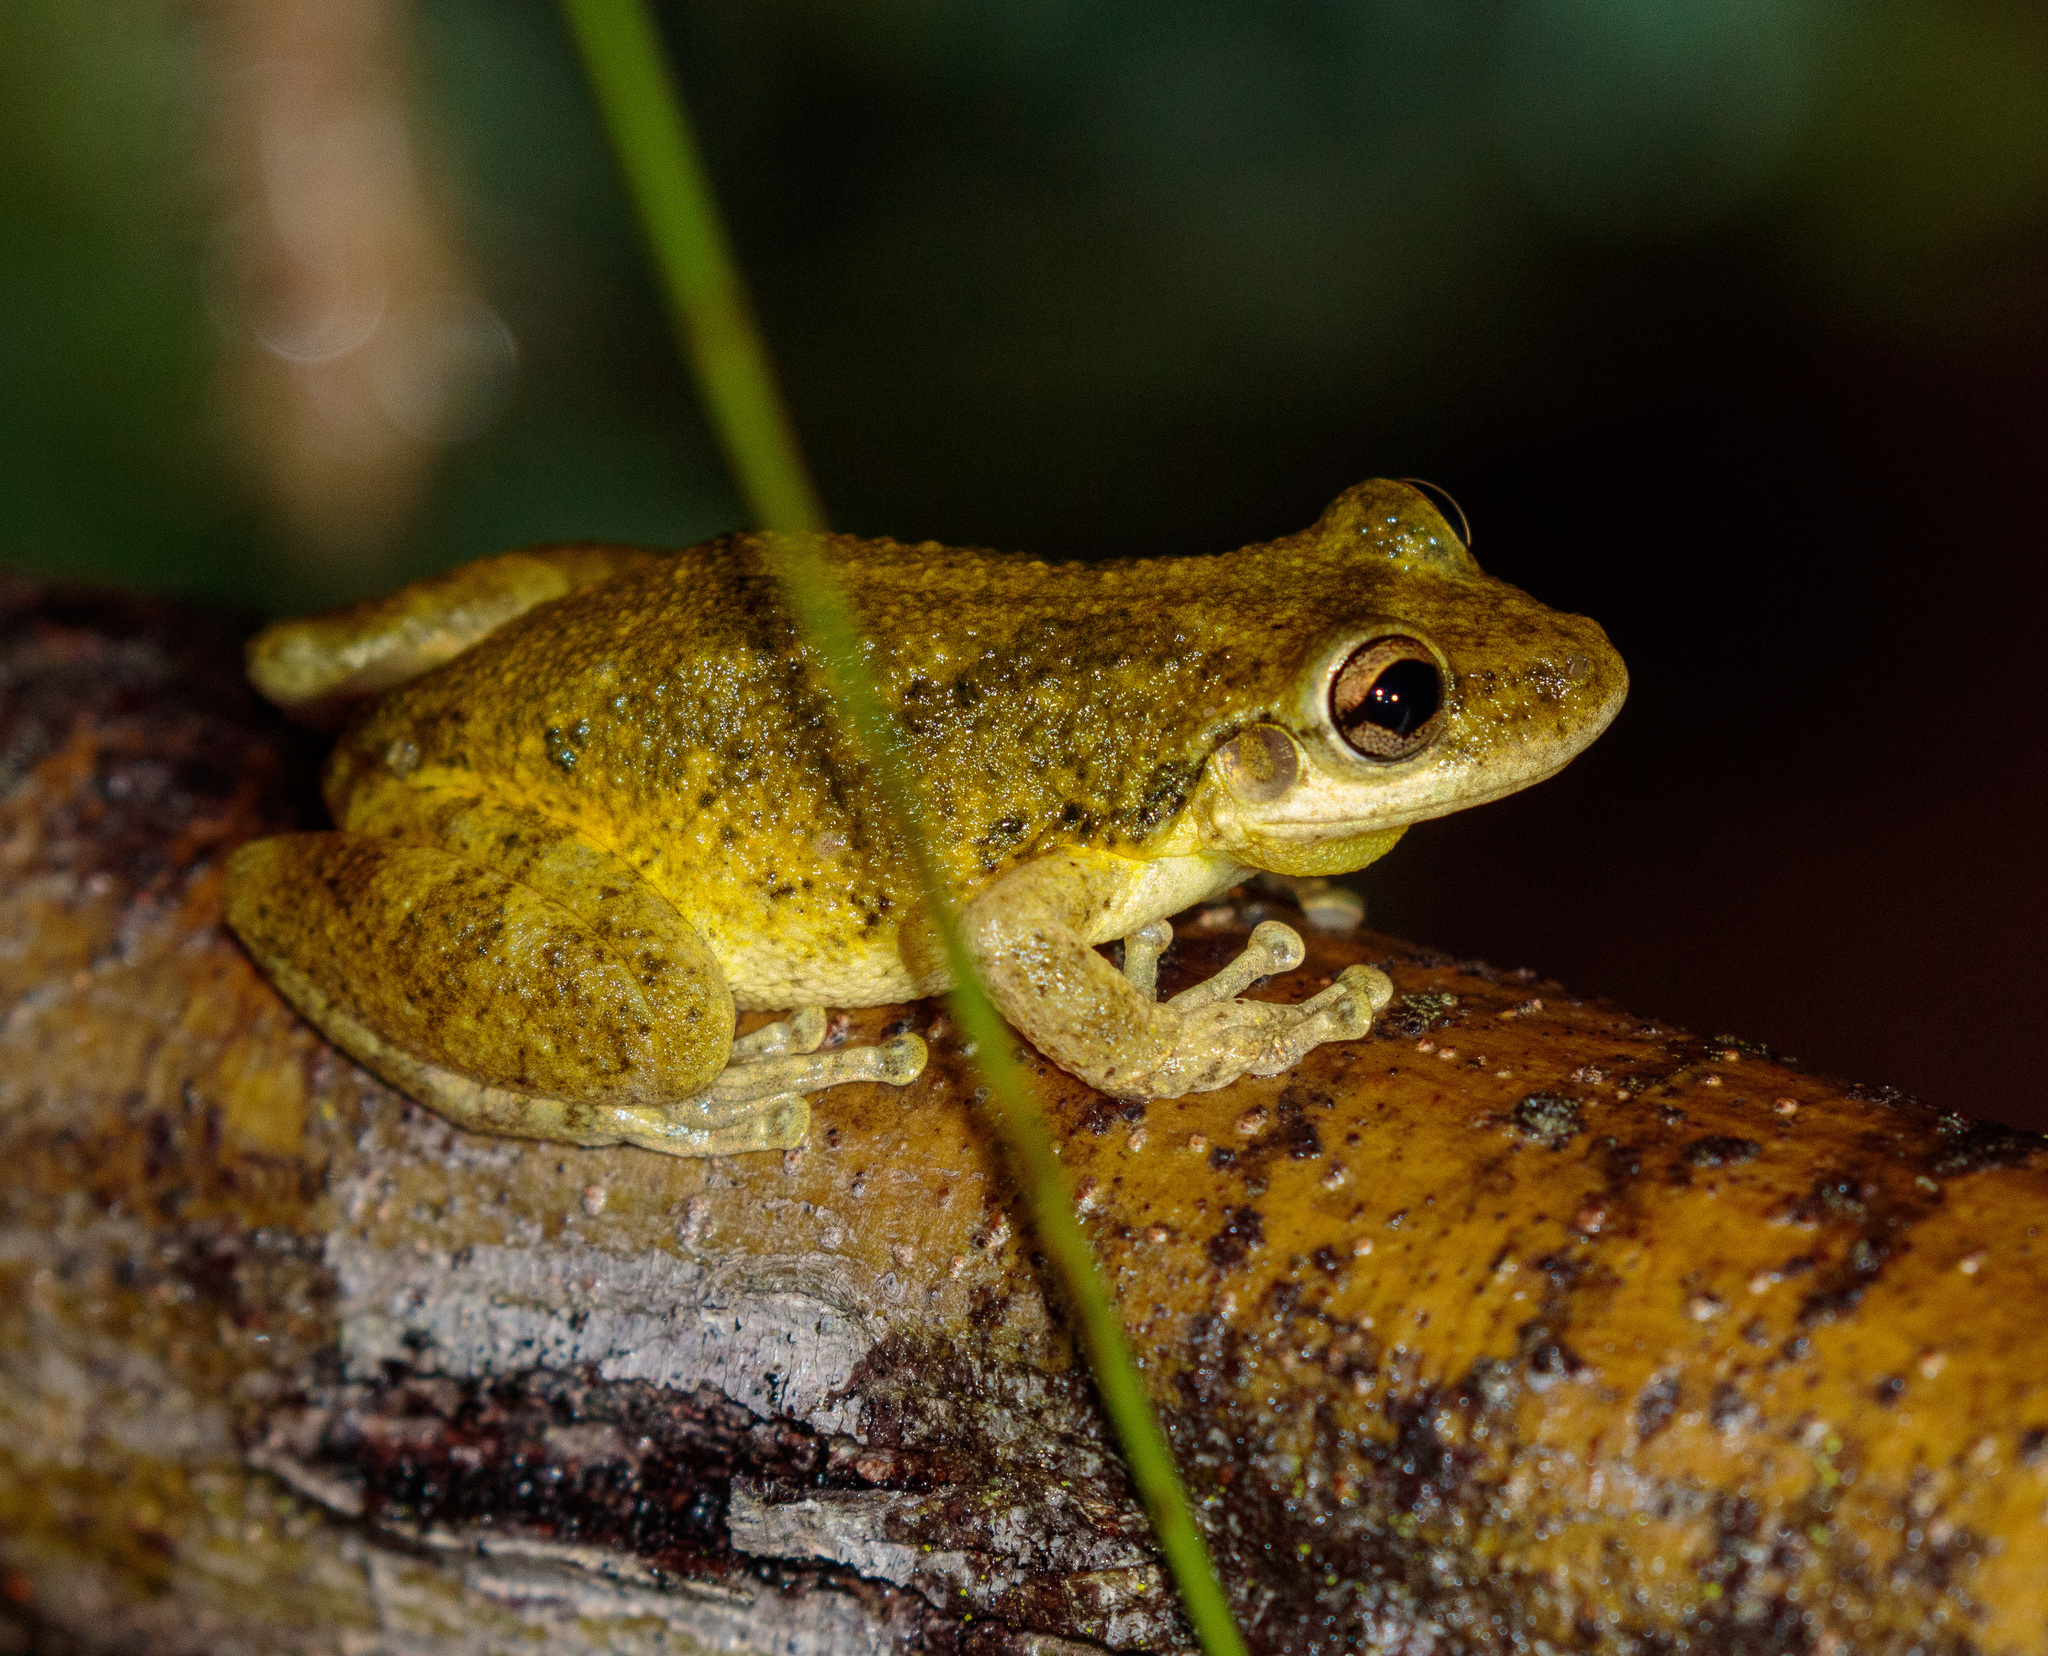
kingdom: Animalia
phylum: Chordata
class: Amphibia
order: Anura
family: Hylidae
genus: Scinax
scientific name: Scinax x-signatus
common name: Venezuela snouted treefrog
